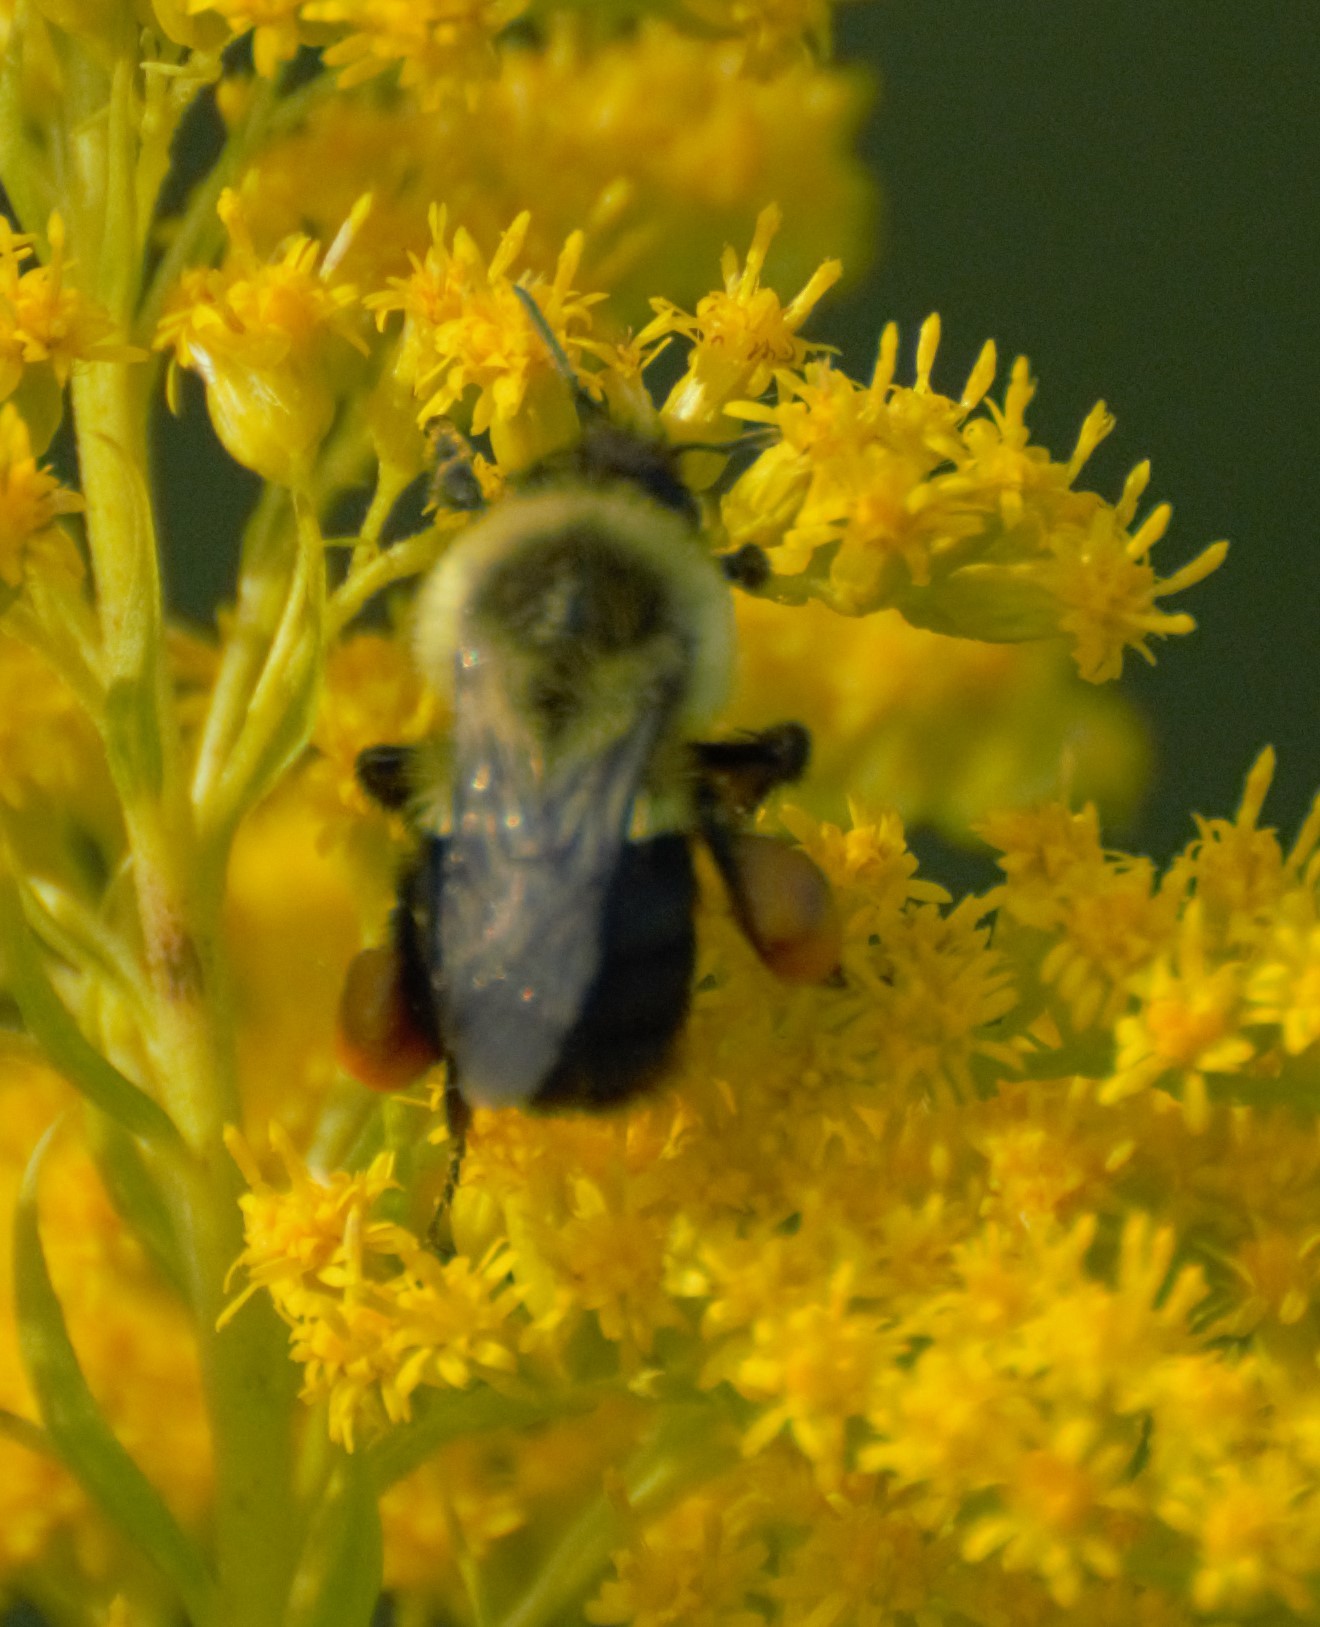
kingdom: Animalia
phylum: Arthropoda
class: Insecta
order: Hymenoptera
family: Apidae
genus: Bombus
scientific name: Bombus impatiens
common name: Common eastern bumble bee
